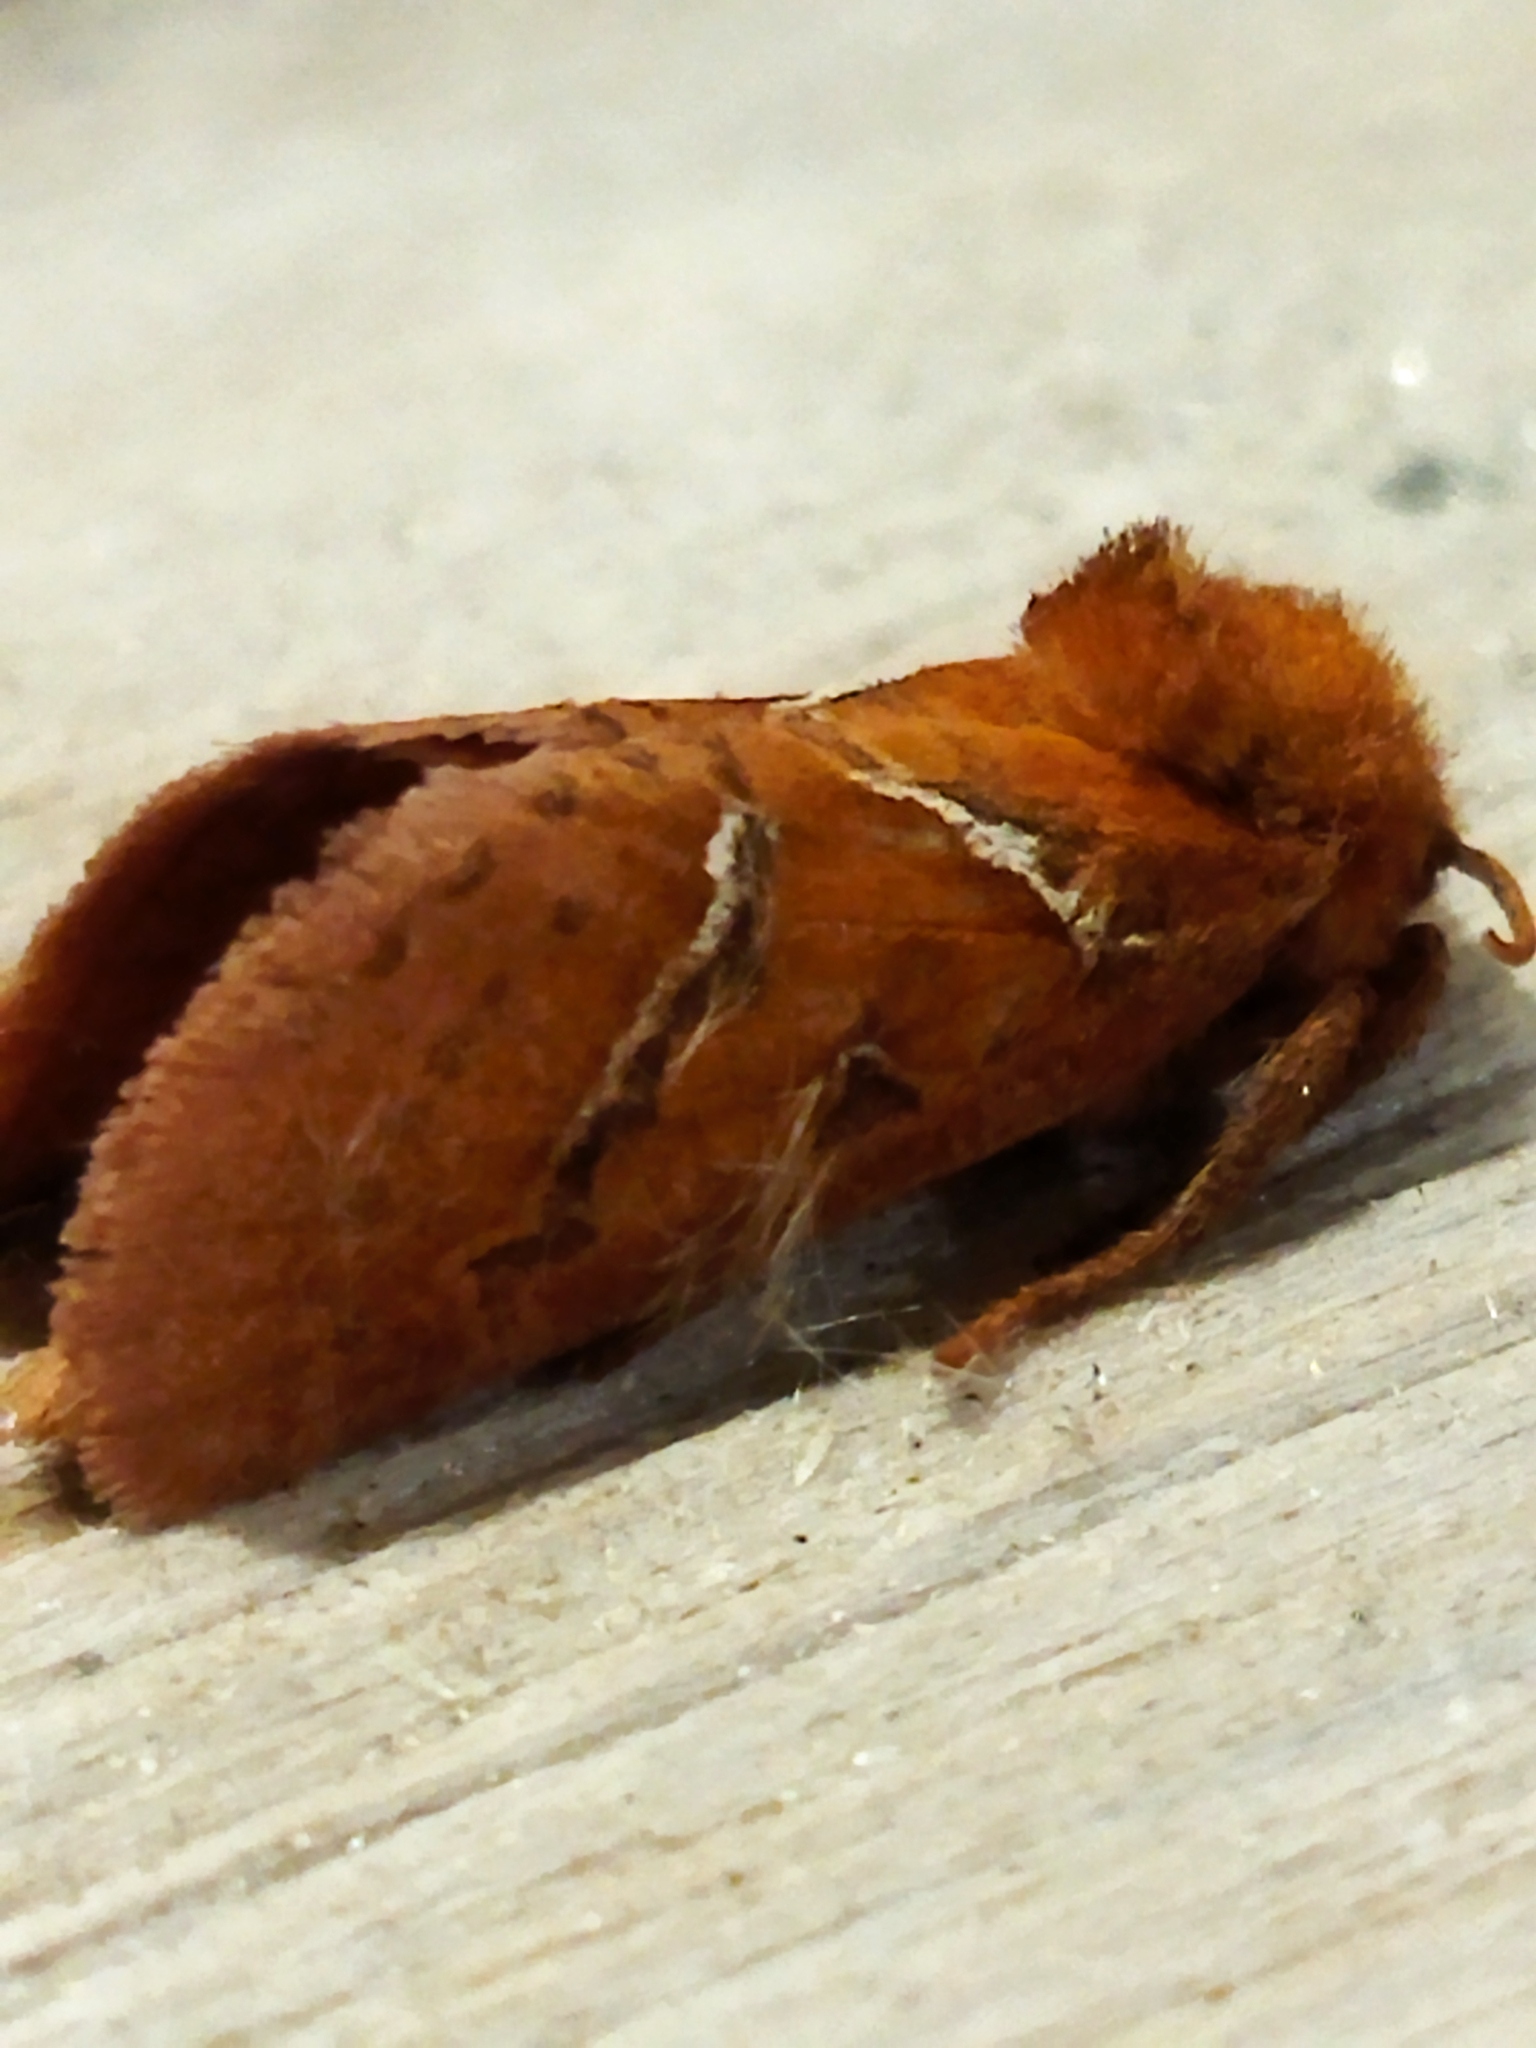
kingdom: Animalia
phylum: Arthropoda
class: Insecta
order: Lepidoptera
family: Hepialidae
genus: Triodia
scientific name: Triodia sylvina
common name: Orange swift
